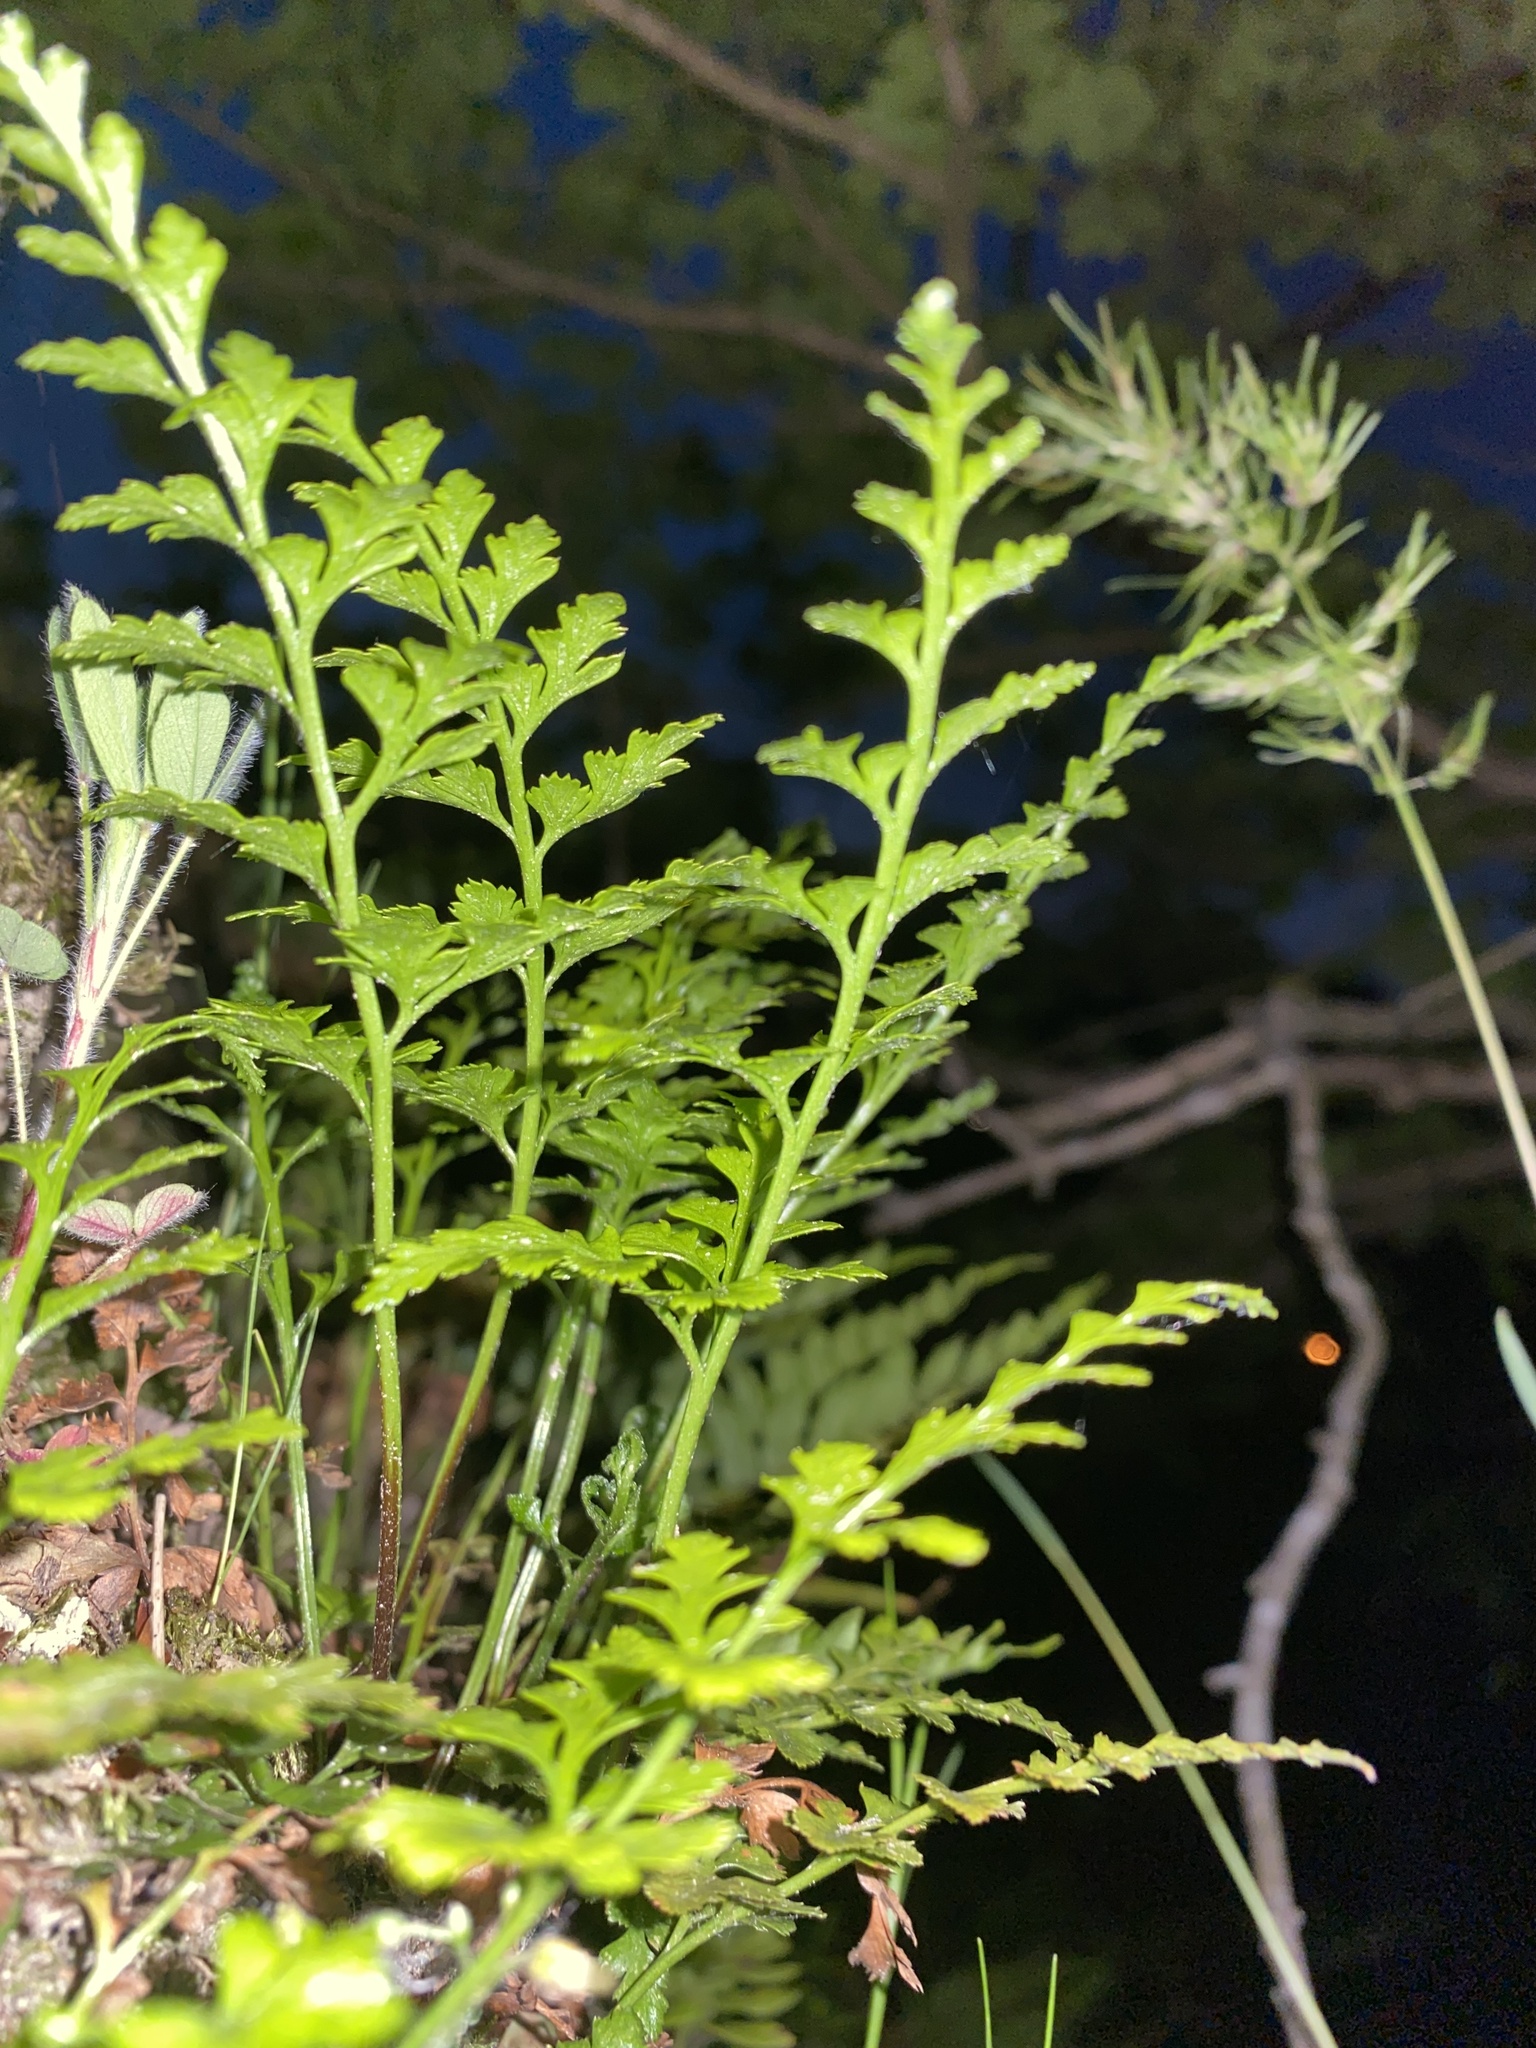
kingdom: Plantae
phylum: Tracheophyta
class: Polypodiopsida
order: Polypodiales
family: Aspleniaceae
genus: Asplenium
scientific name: Asplenium adiantum-nigrum
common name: Black spleenwort
